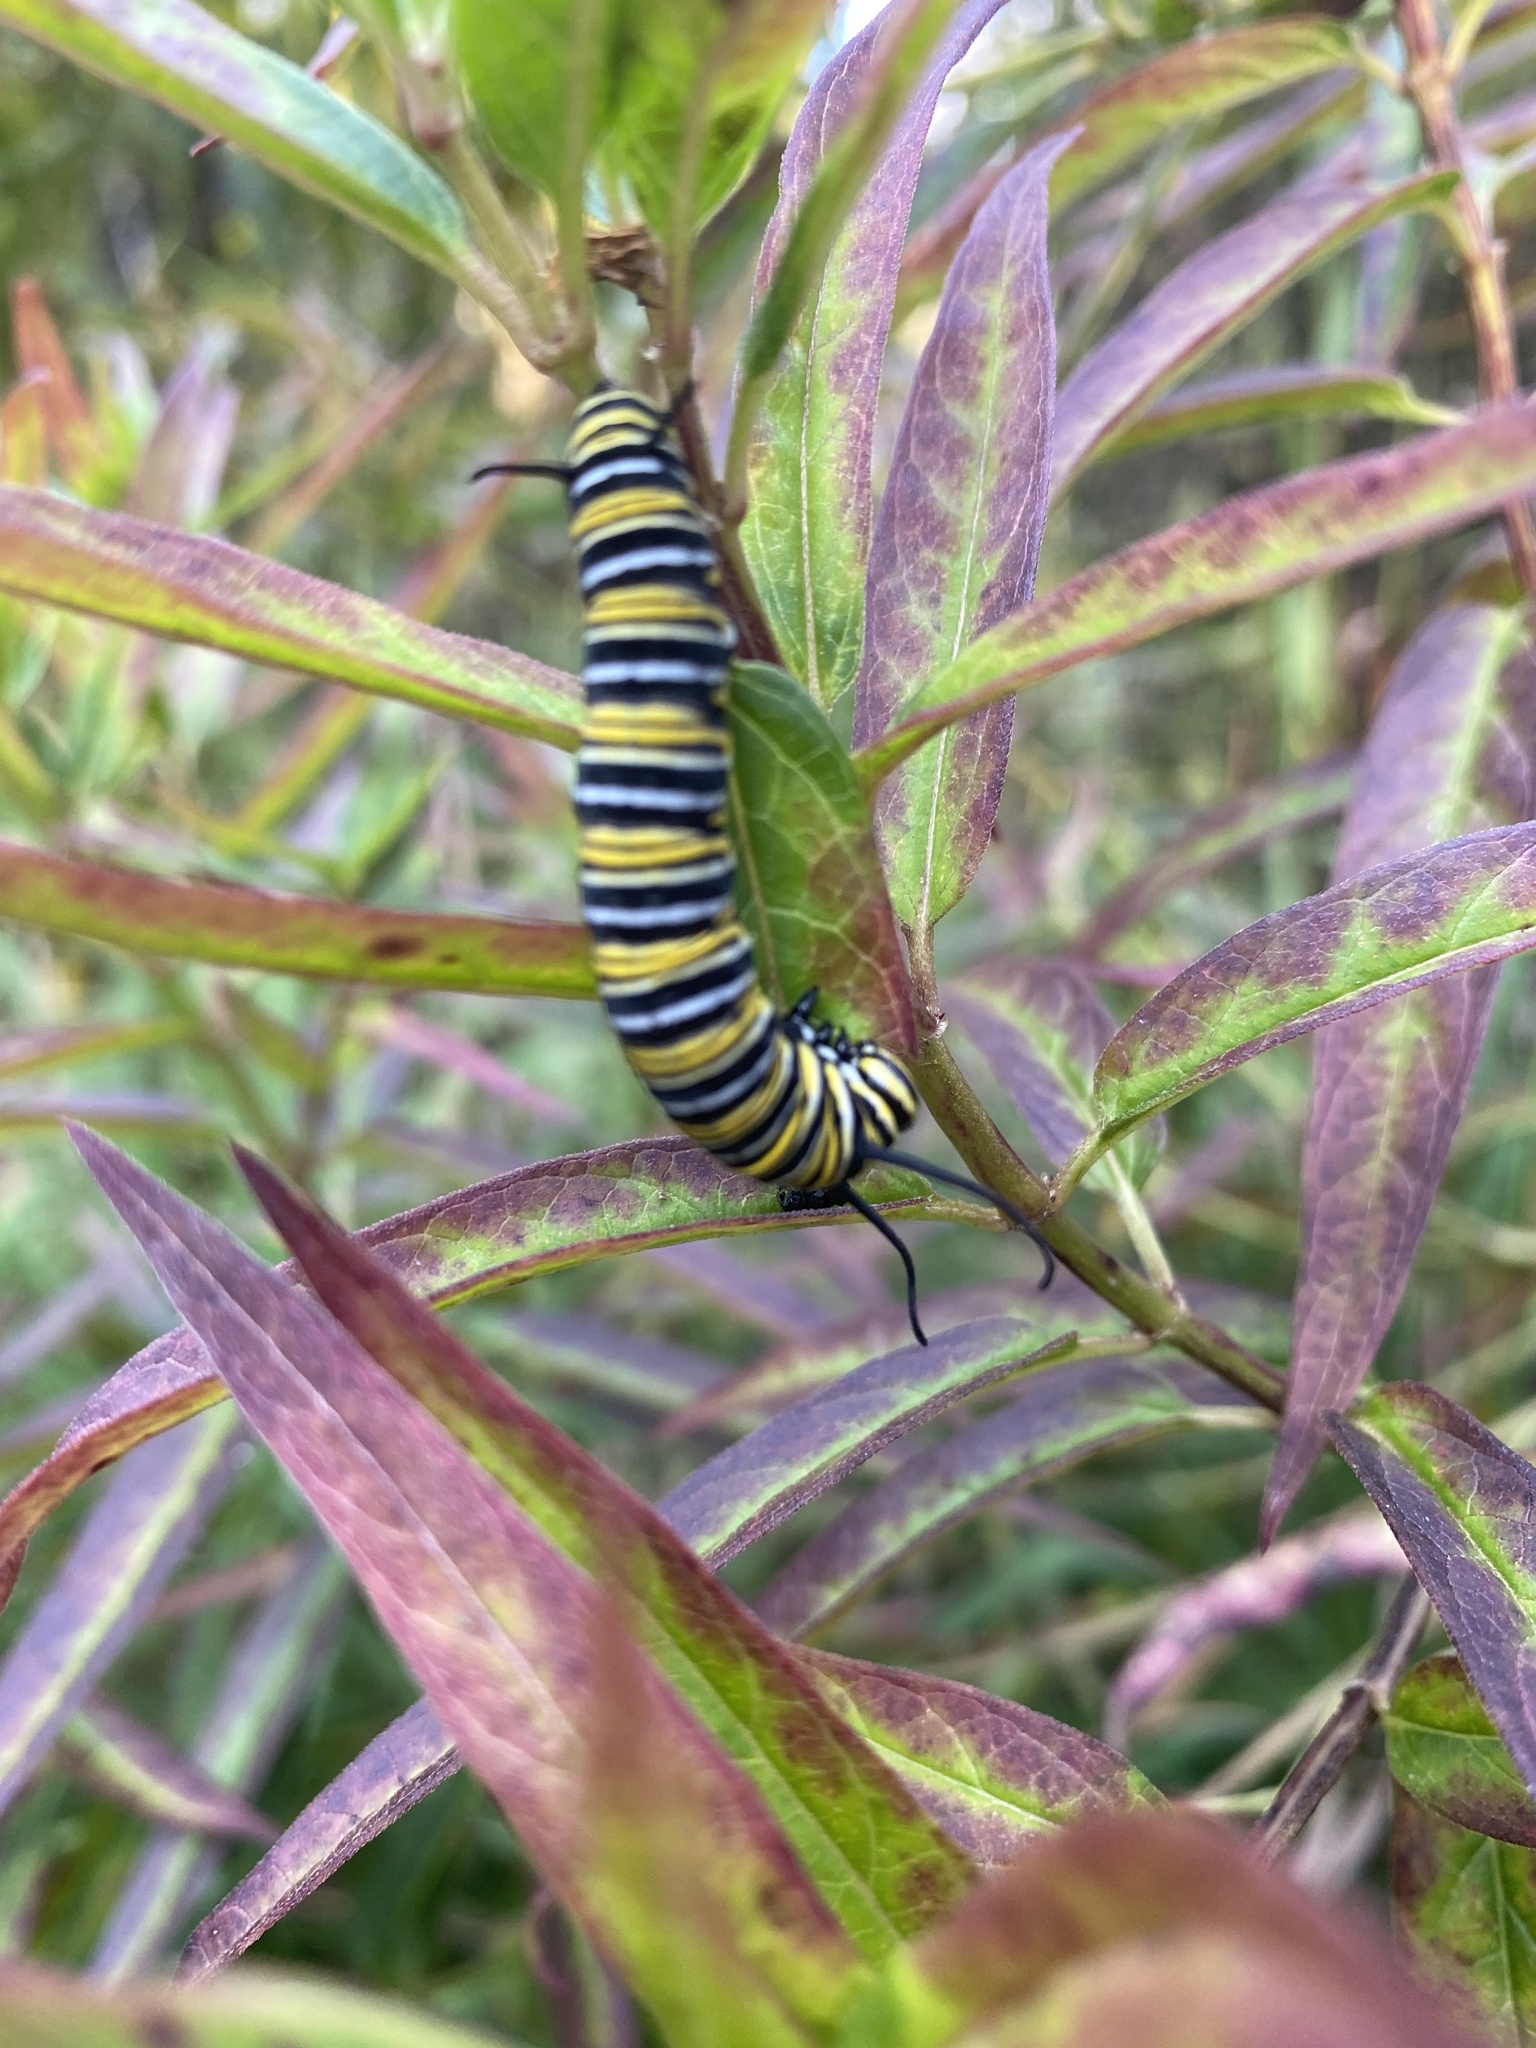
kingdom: Animalia
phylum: Arthropoda
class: Insecta
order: Lepidoptera
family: Nymphalidae
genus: Danaus
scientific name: Danaus plexippus
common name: Monarch
